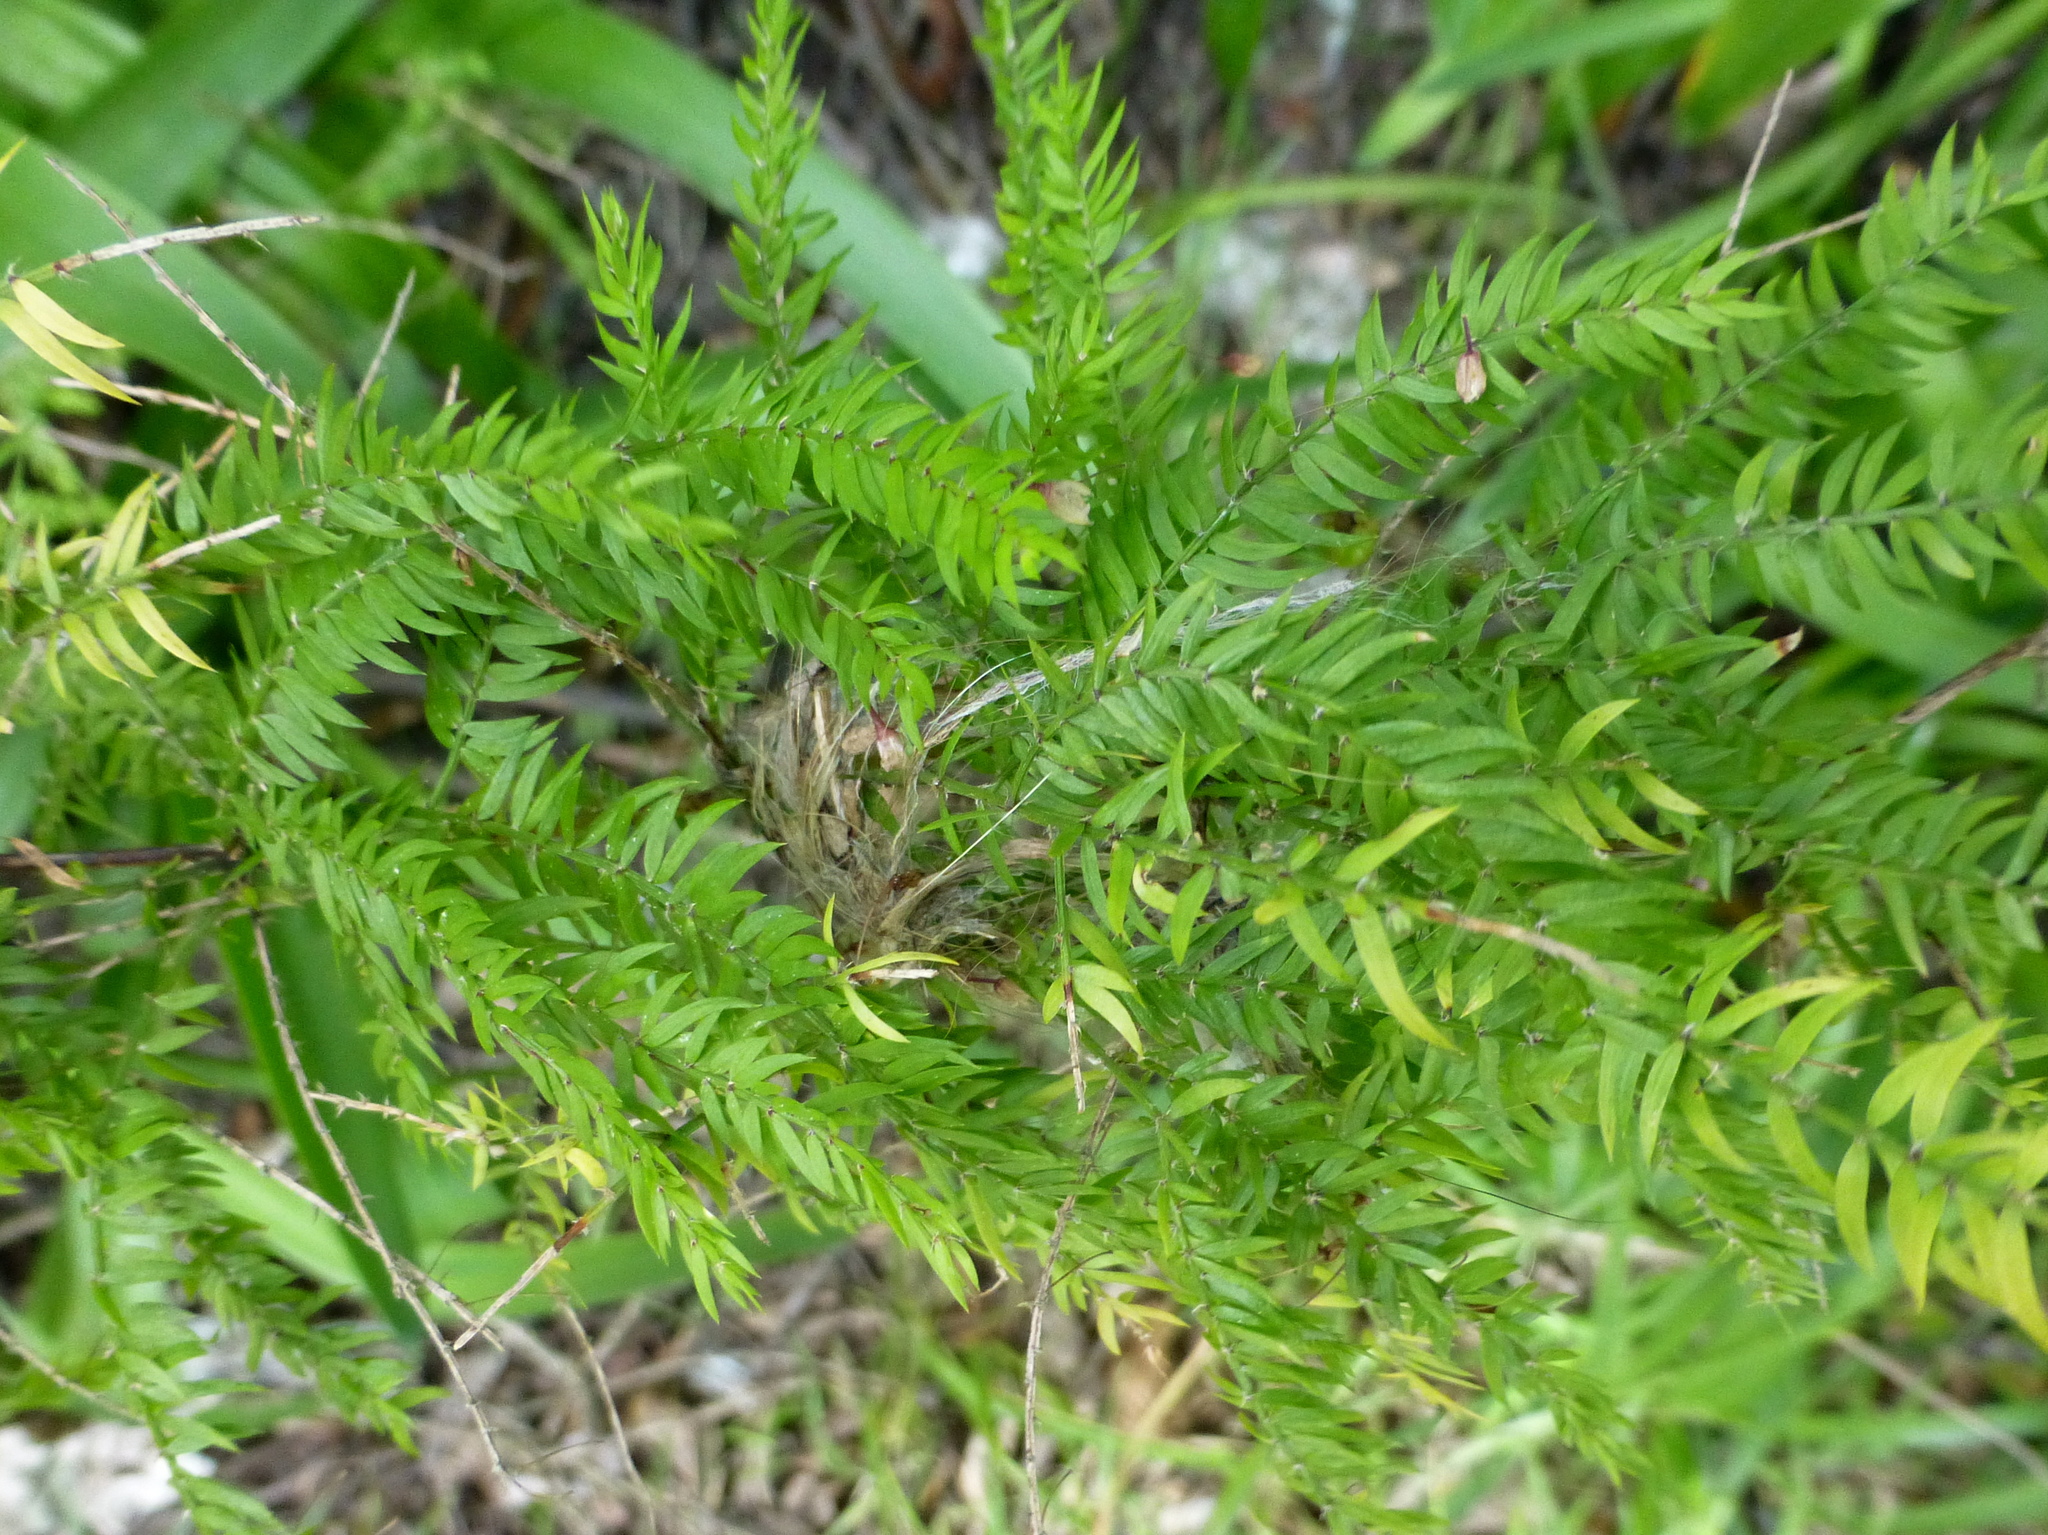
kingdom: Plantae
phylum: Tracheophyta
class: Liliopsida
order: Asparagales
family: Asparagaceae
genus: Asparagus
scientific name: Asparagus scandens
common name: Asparagus-fern
